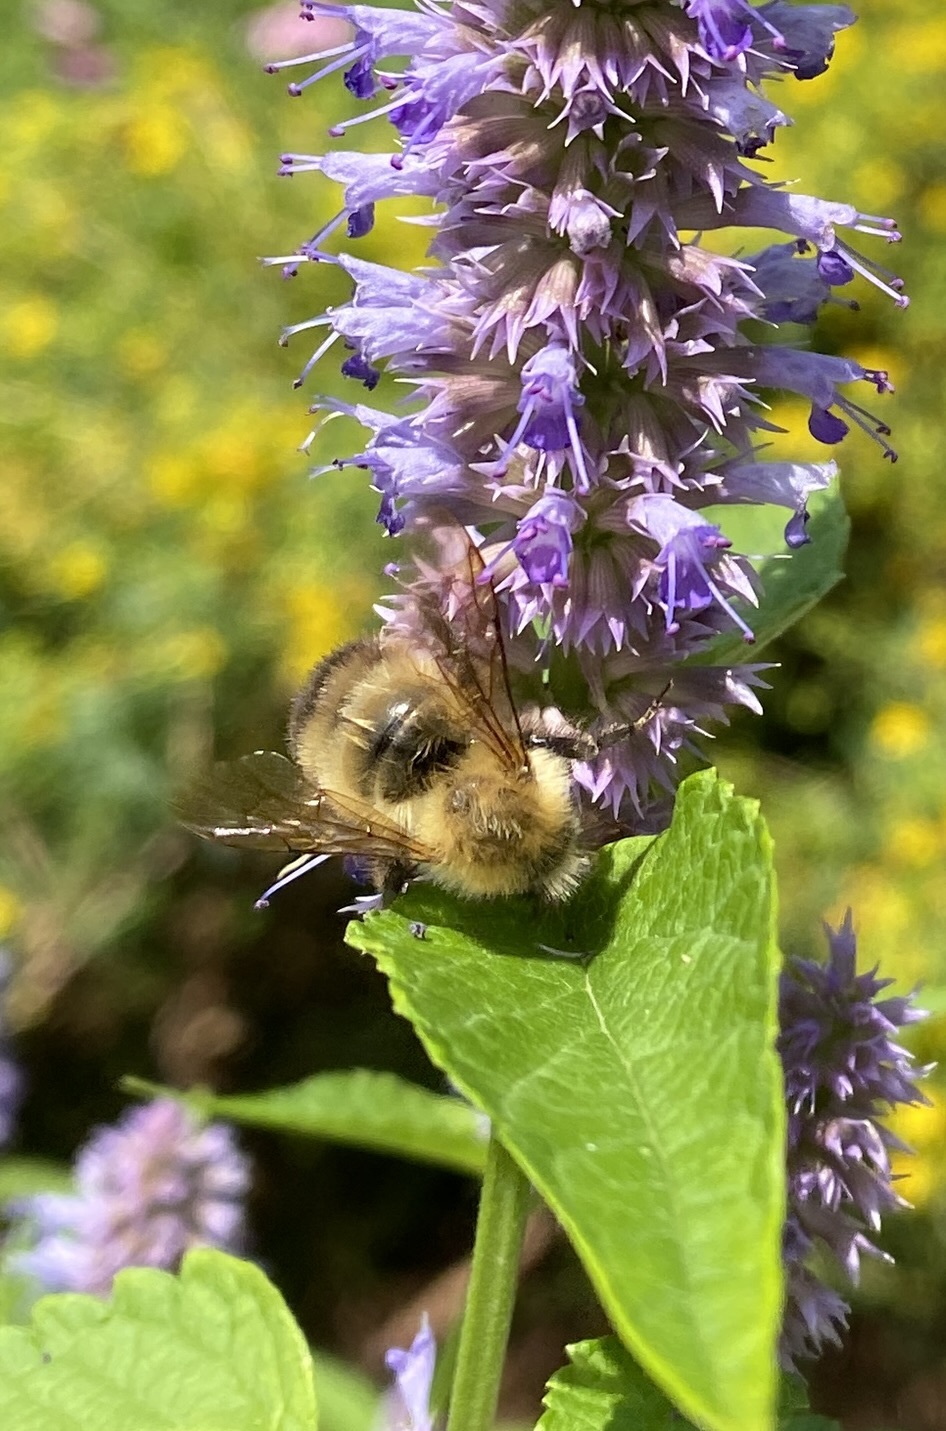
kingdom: Animalia
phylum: Arthropoda
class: Insecta
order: Hymenoptera
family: Apidae
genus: Bombus
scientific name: Bombus perplexus
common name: Confusing bumble bee
